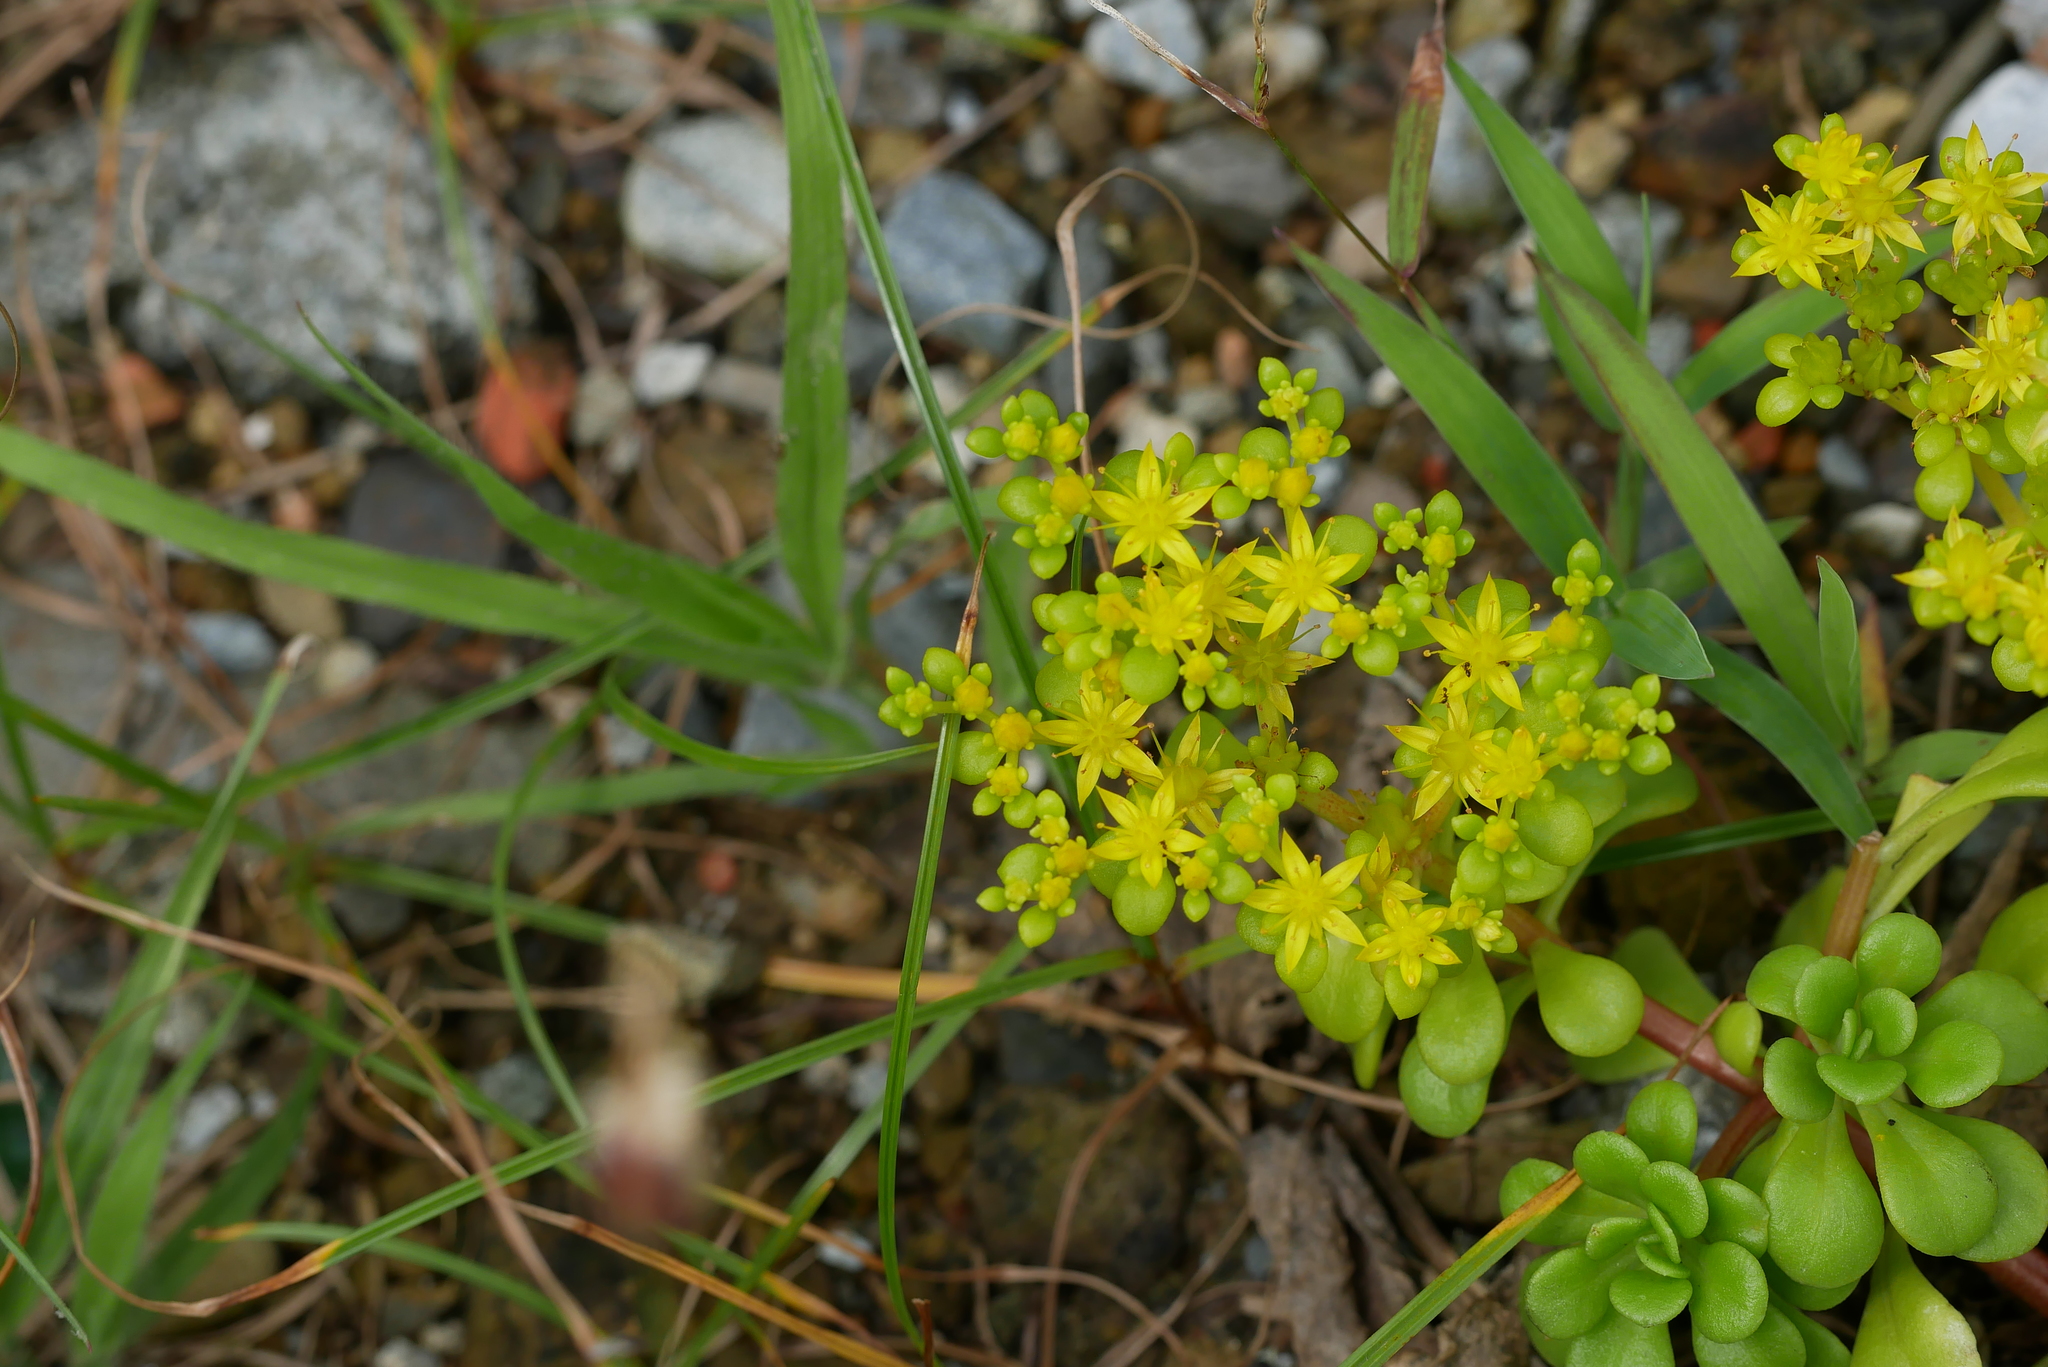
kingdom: Plantae
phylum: Tracheophyta
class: Magnoliopsida
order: Saxifragales
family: Crassulaceae
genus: Sedum
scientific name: Sedum formosanum
